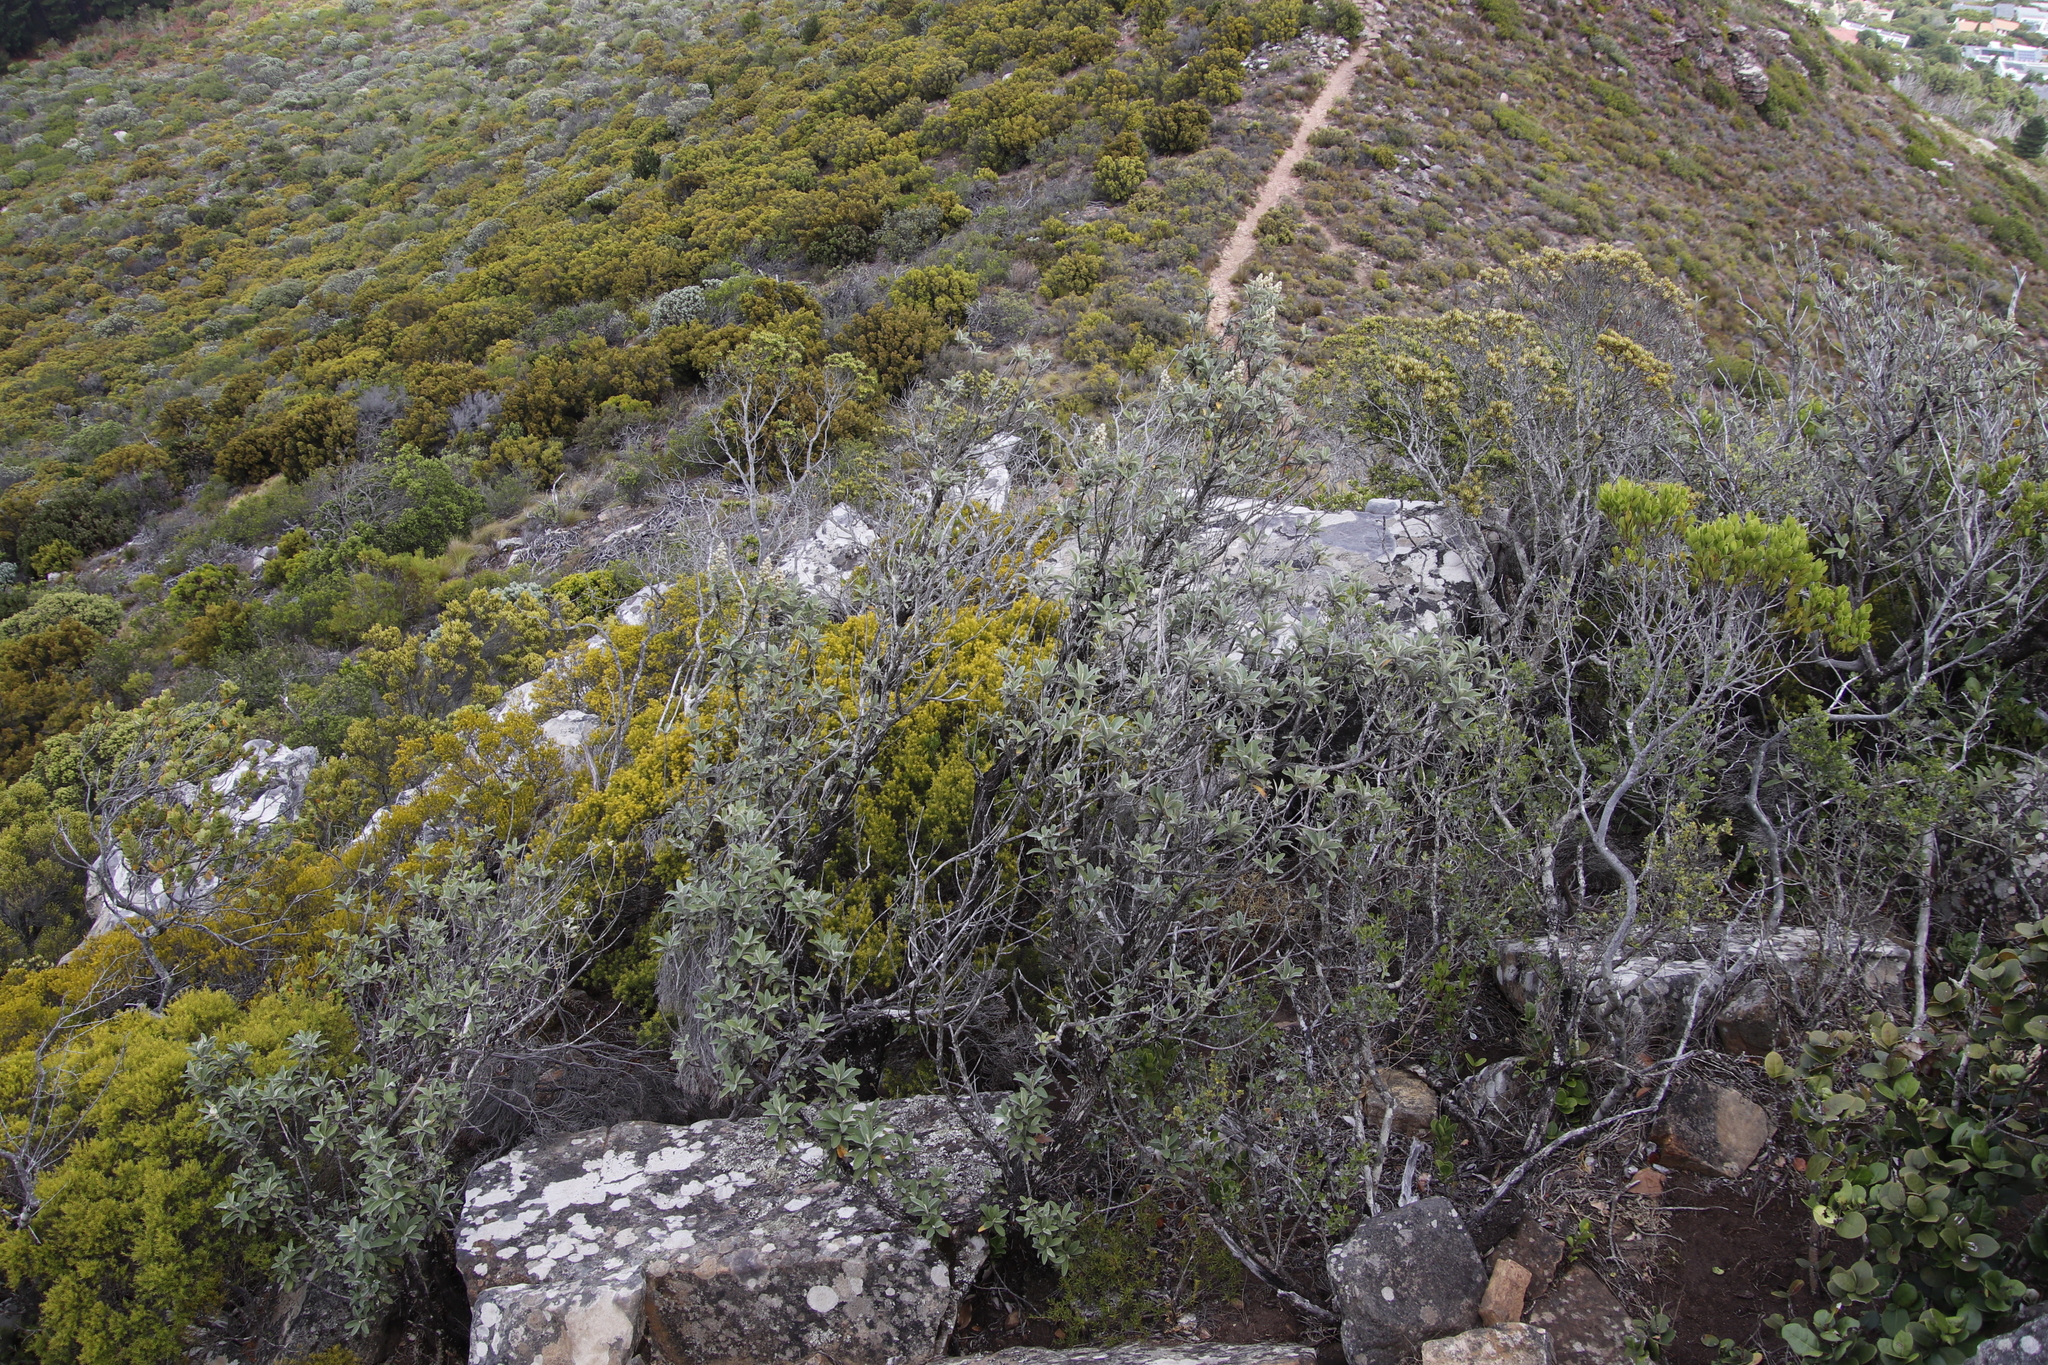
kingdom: Plantae
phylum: Tracheophyta
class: Magnoliopsida
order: Asterales
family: Asteraceae
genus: Tarchonanthus
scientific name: Tarchonanthus littoralis
